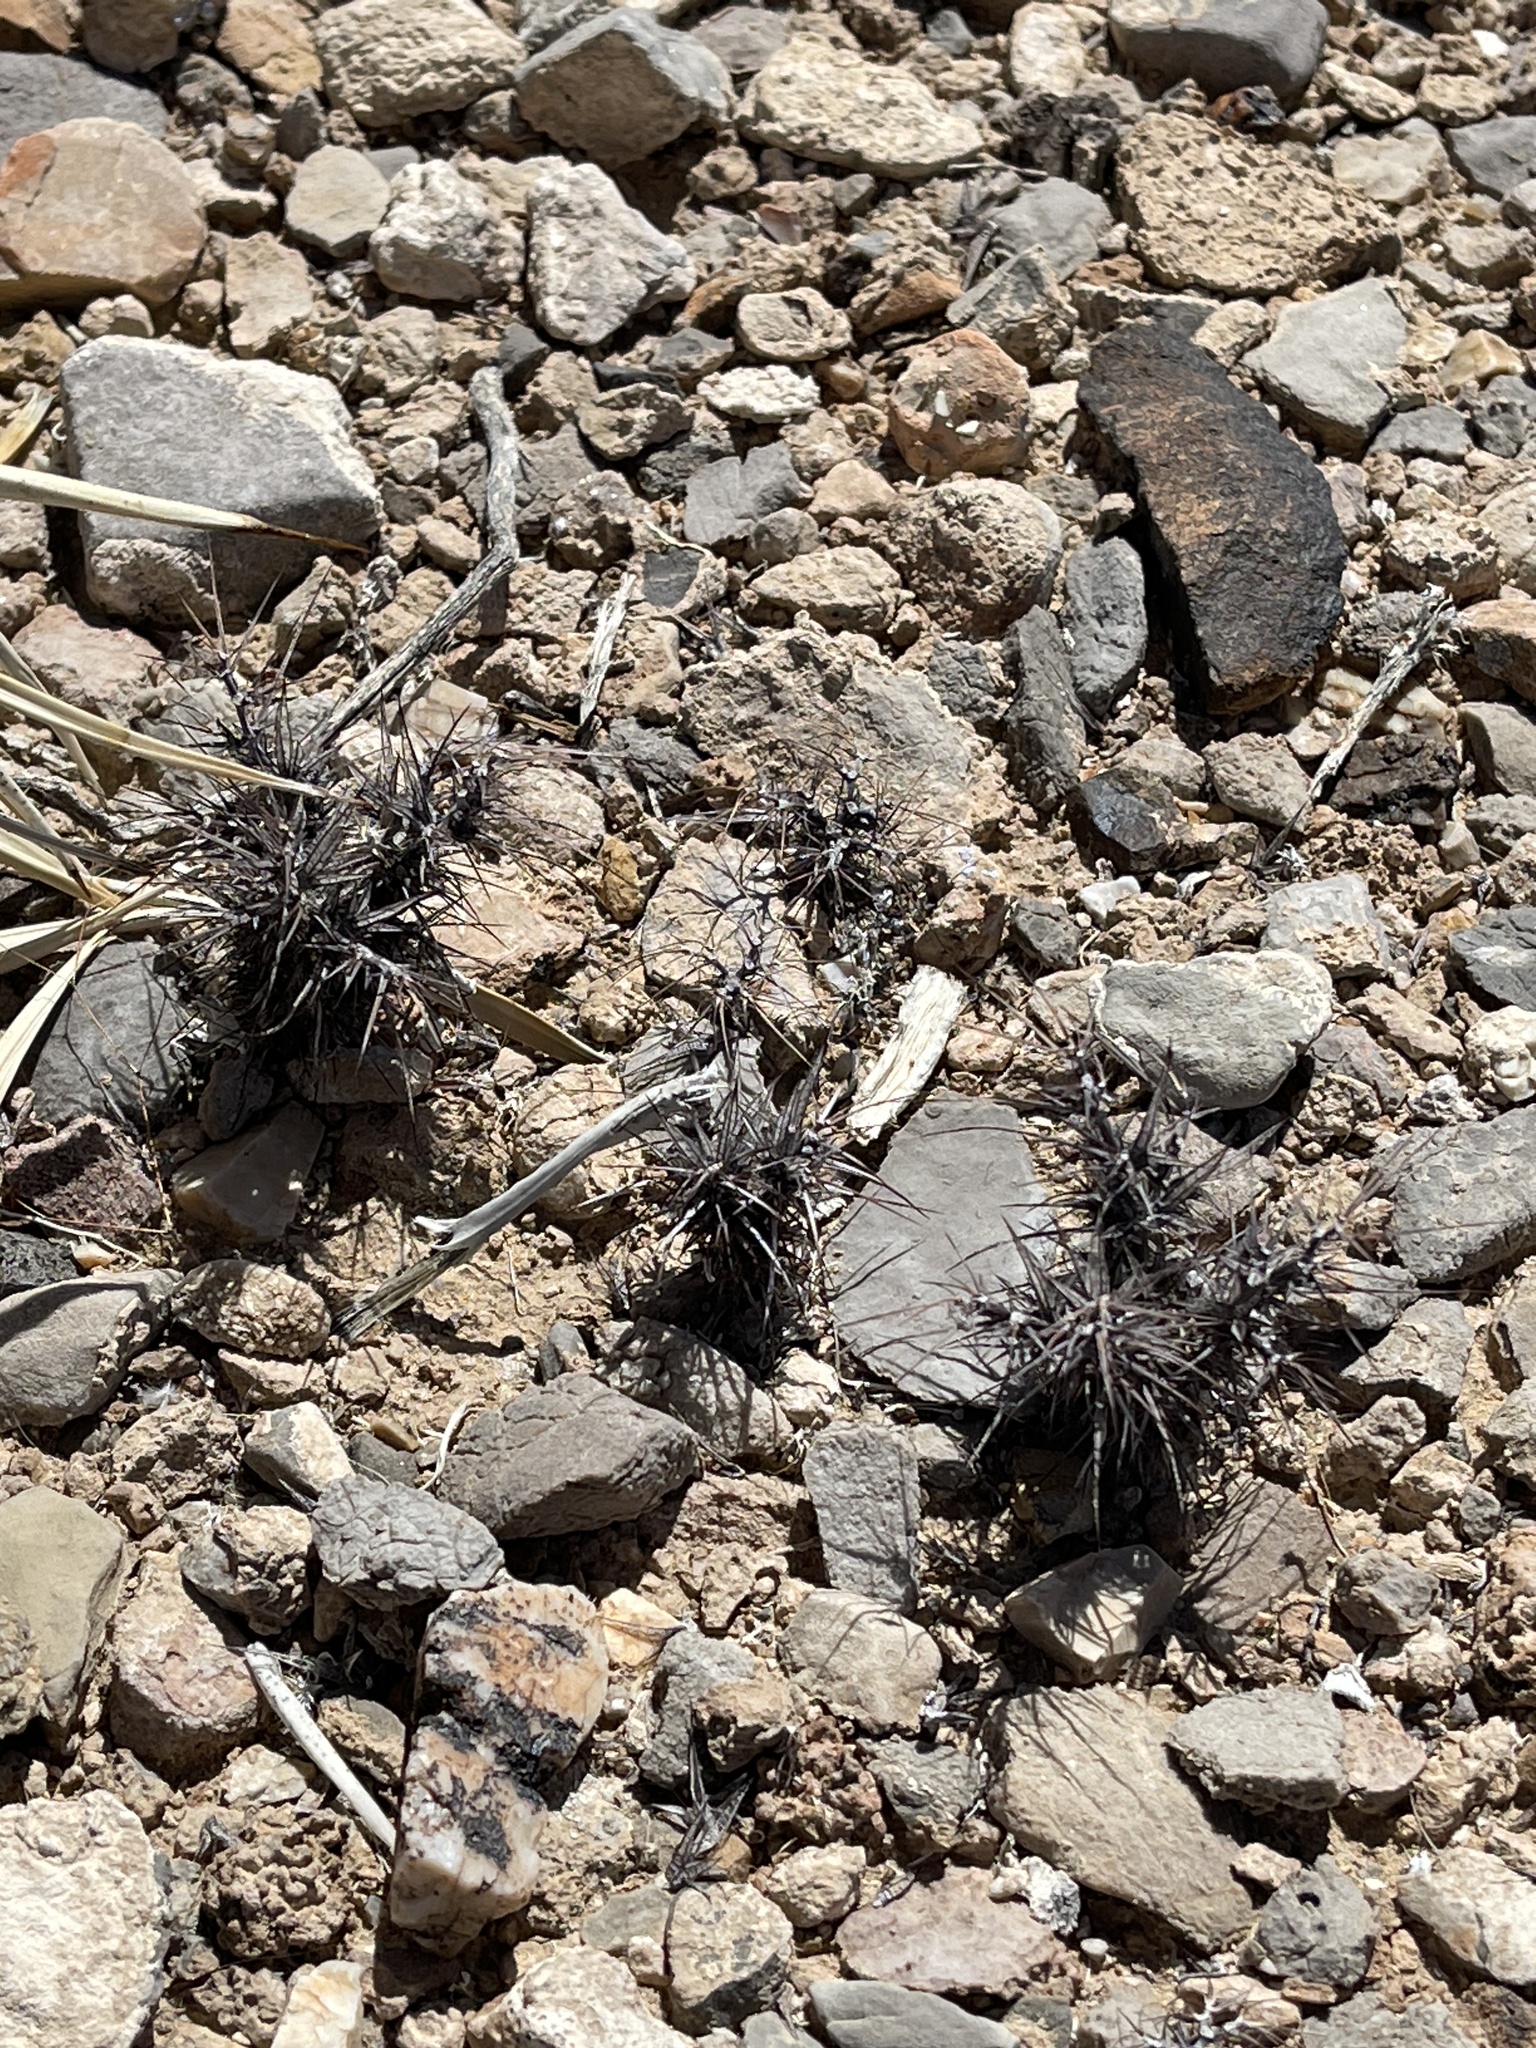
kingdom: Plantae
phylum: Tracheophyta
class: Magnoliopsida
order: Caryophyllales
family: Polygonaceae
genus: Chorizanthe
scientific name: Chorizanthe rigida
